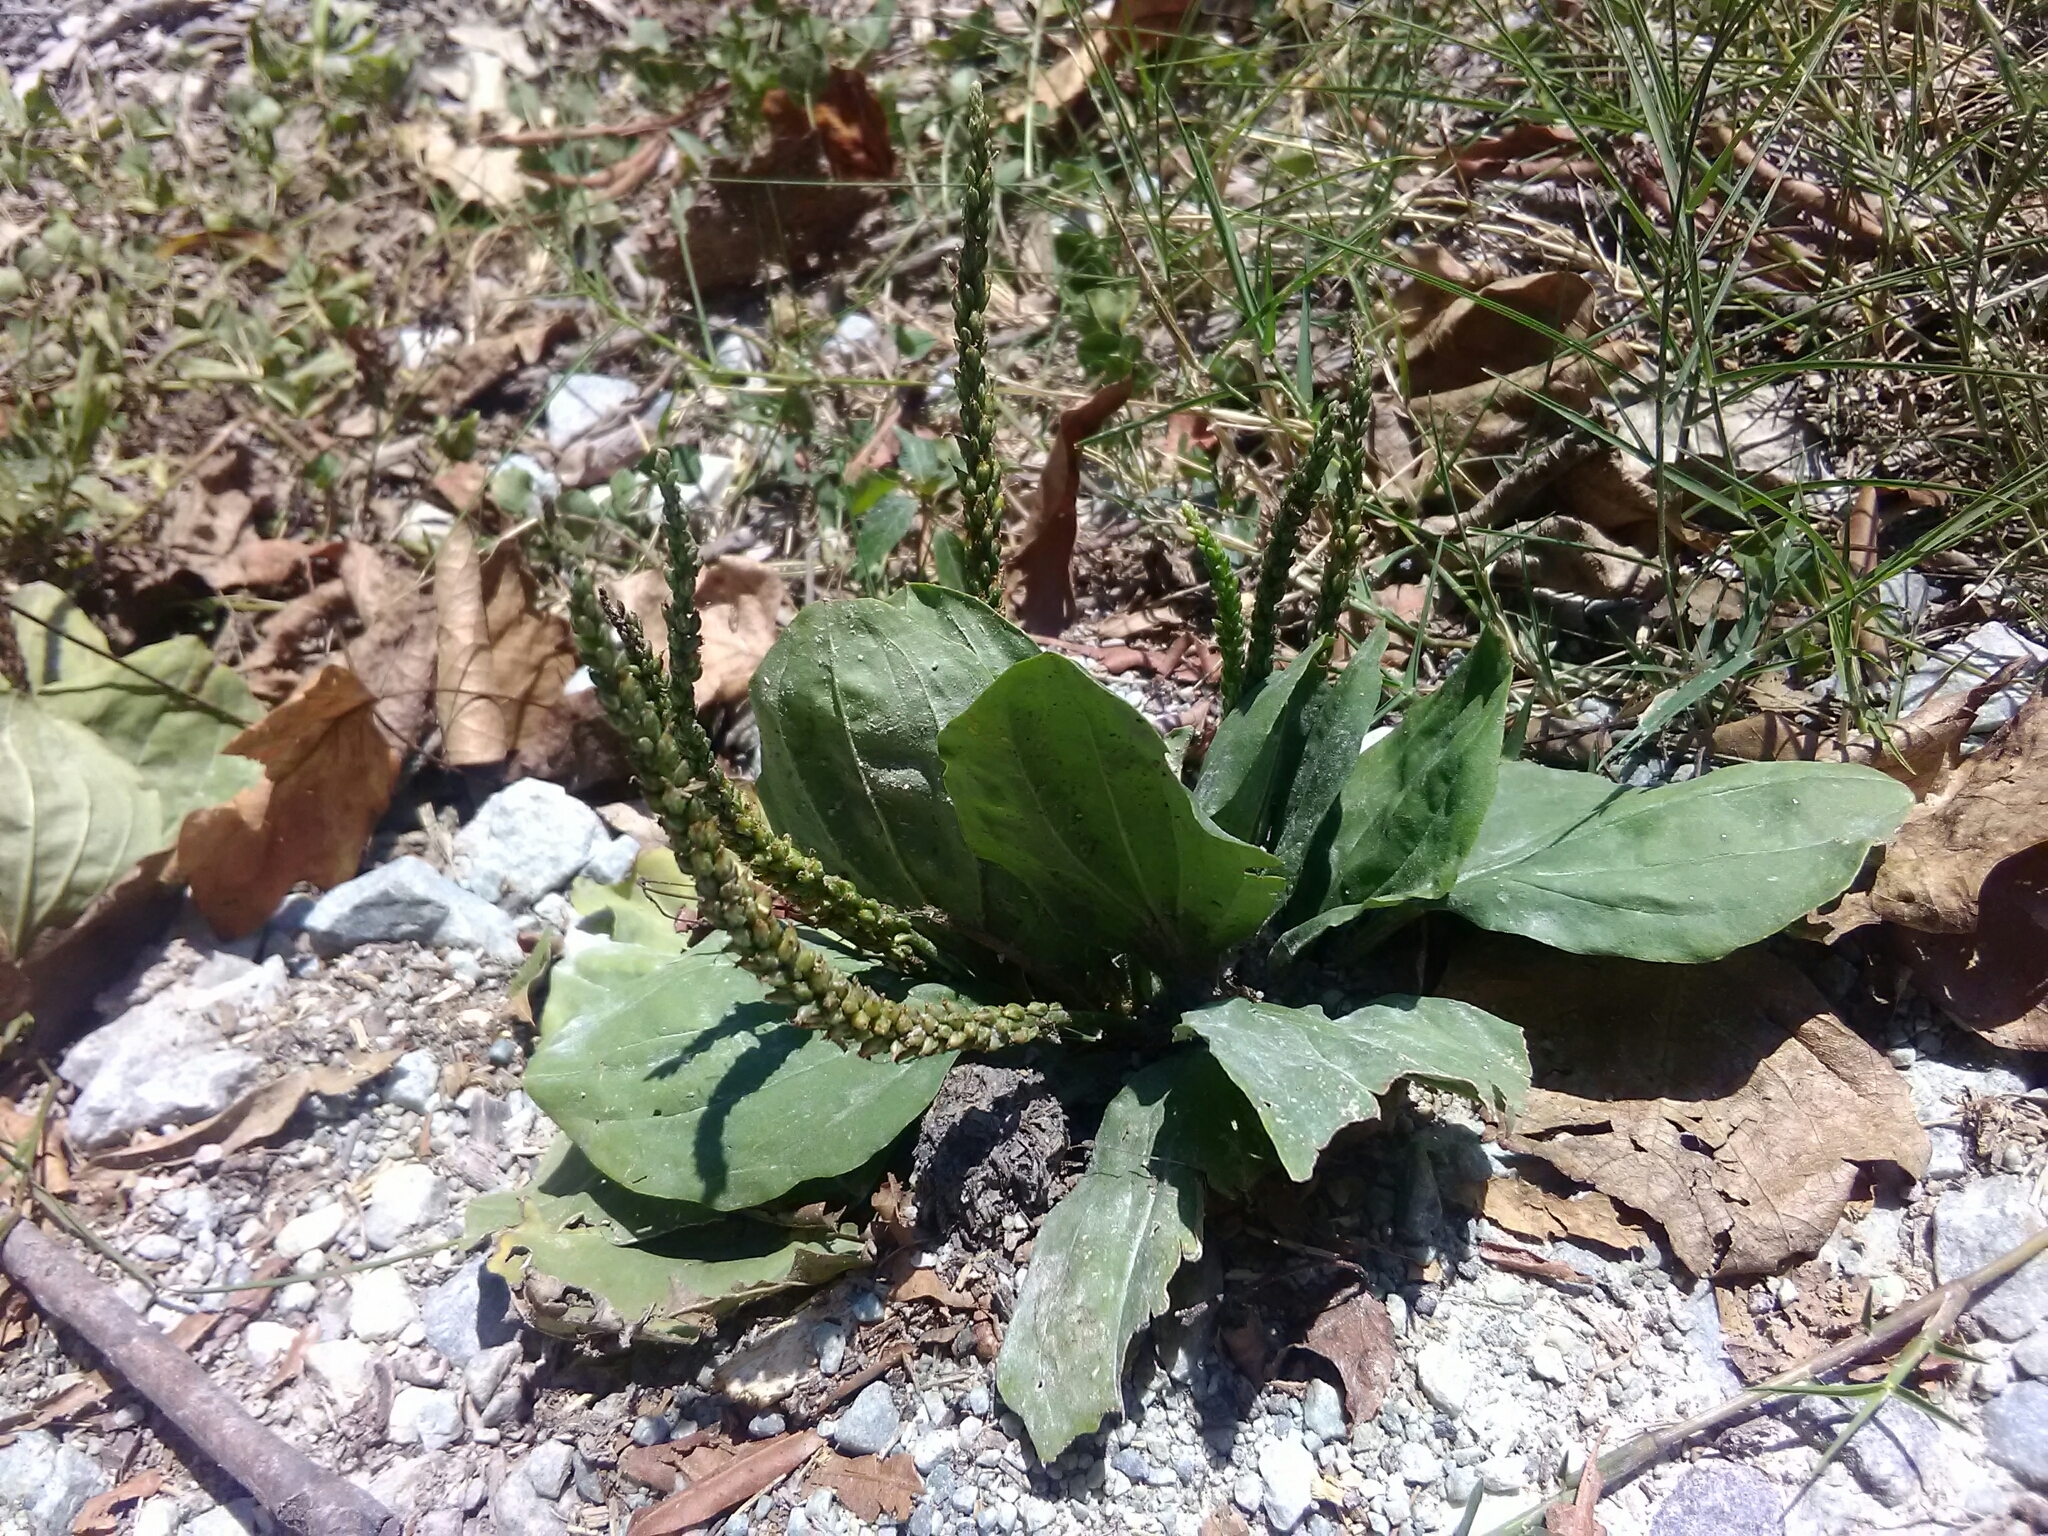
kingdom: Plantae
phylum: Tracheophyta
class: Magnoliopsida
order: Lamiales
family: Plantaginaceae
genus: Plantago
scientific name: Plantago major
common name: Common plantain
